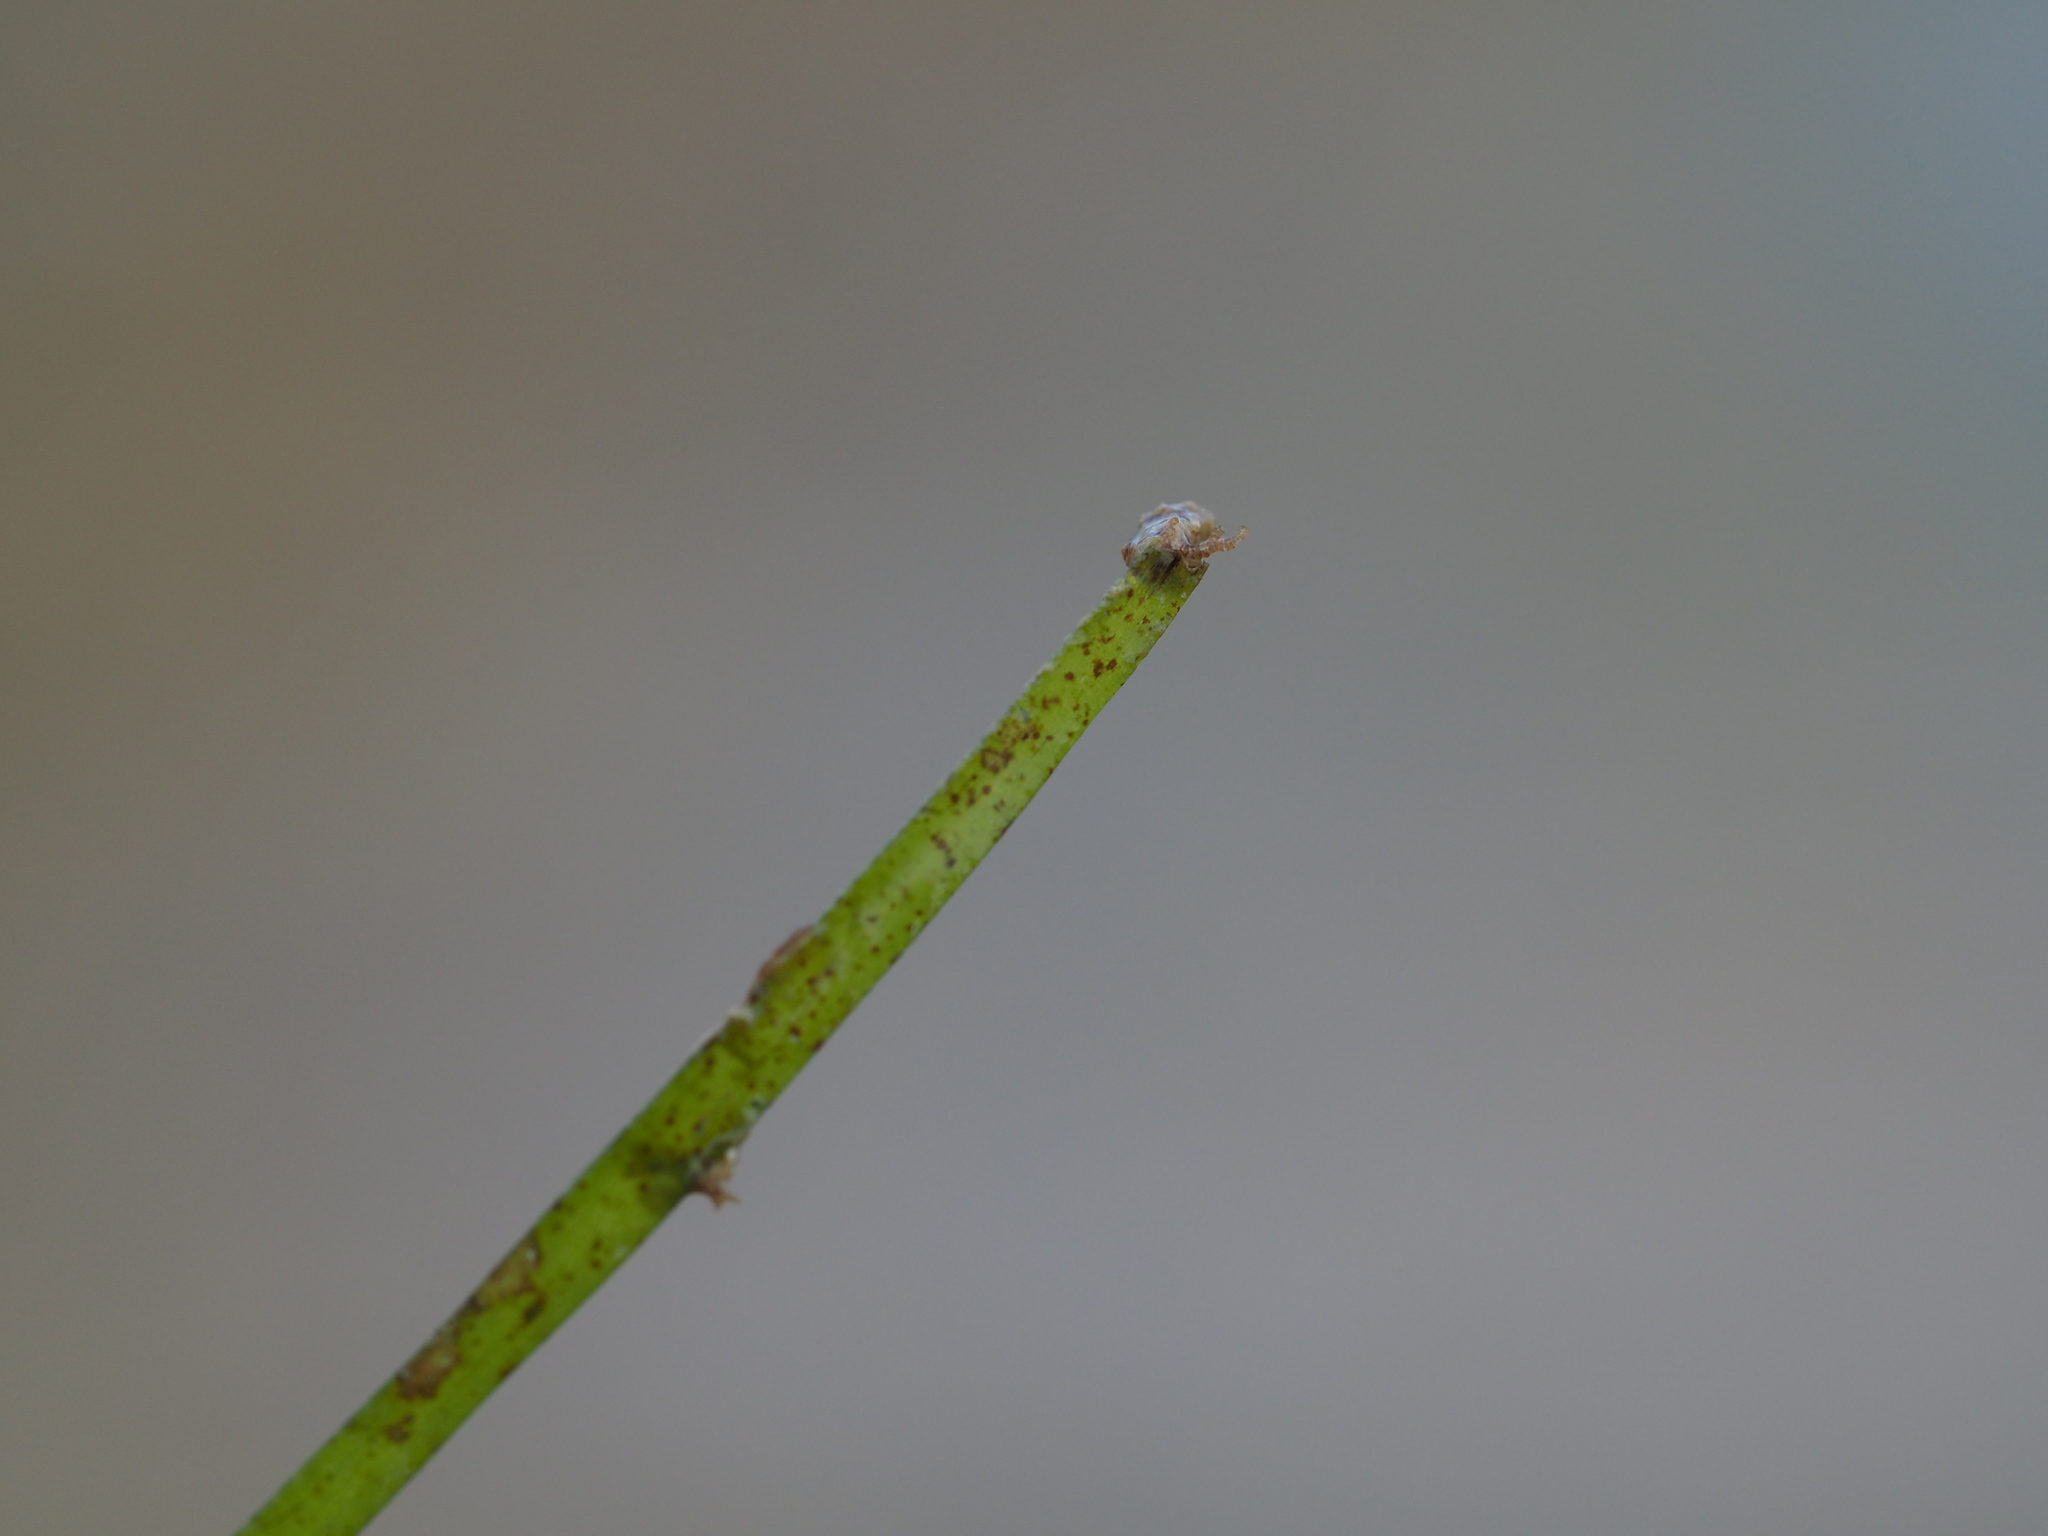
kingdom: Plantae
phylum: Tracheophyta
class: Liliopsida
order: Alismatales
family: Cymodoceaceae
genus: Halodule
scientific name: Halodule uninervis
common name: Narrowleaf seagrass
